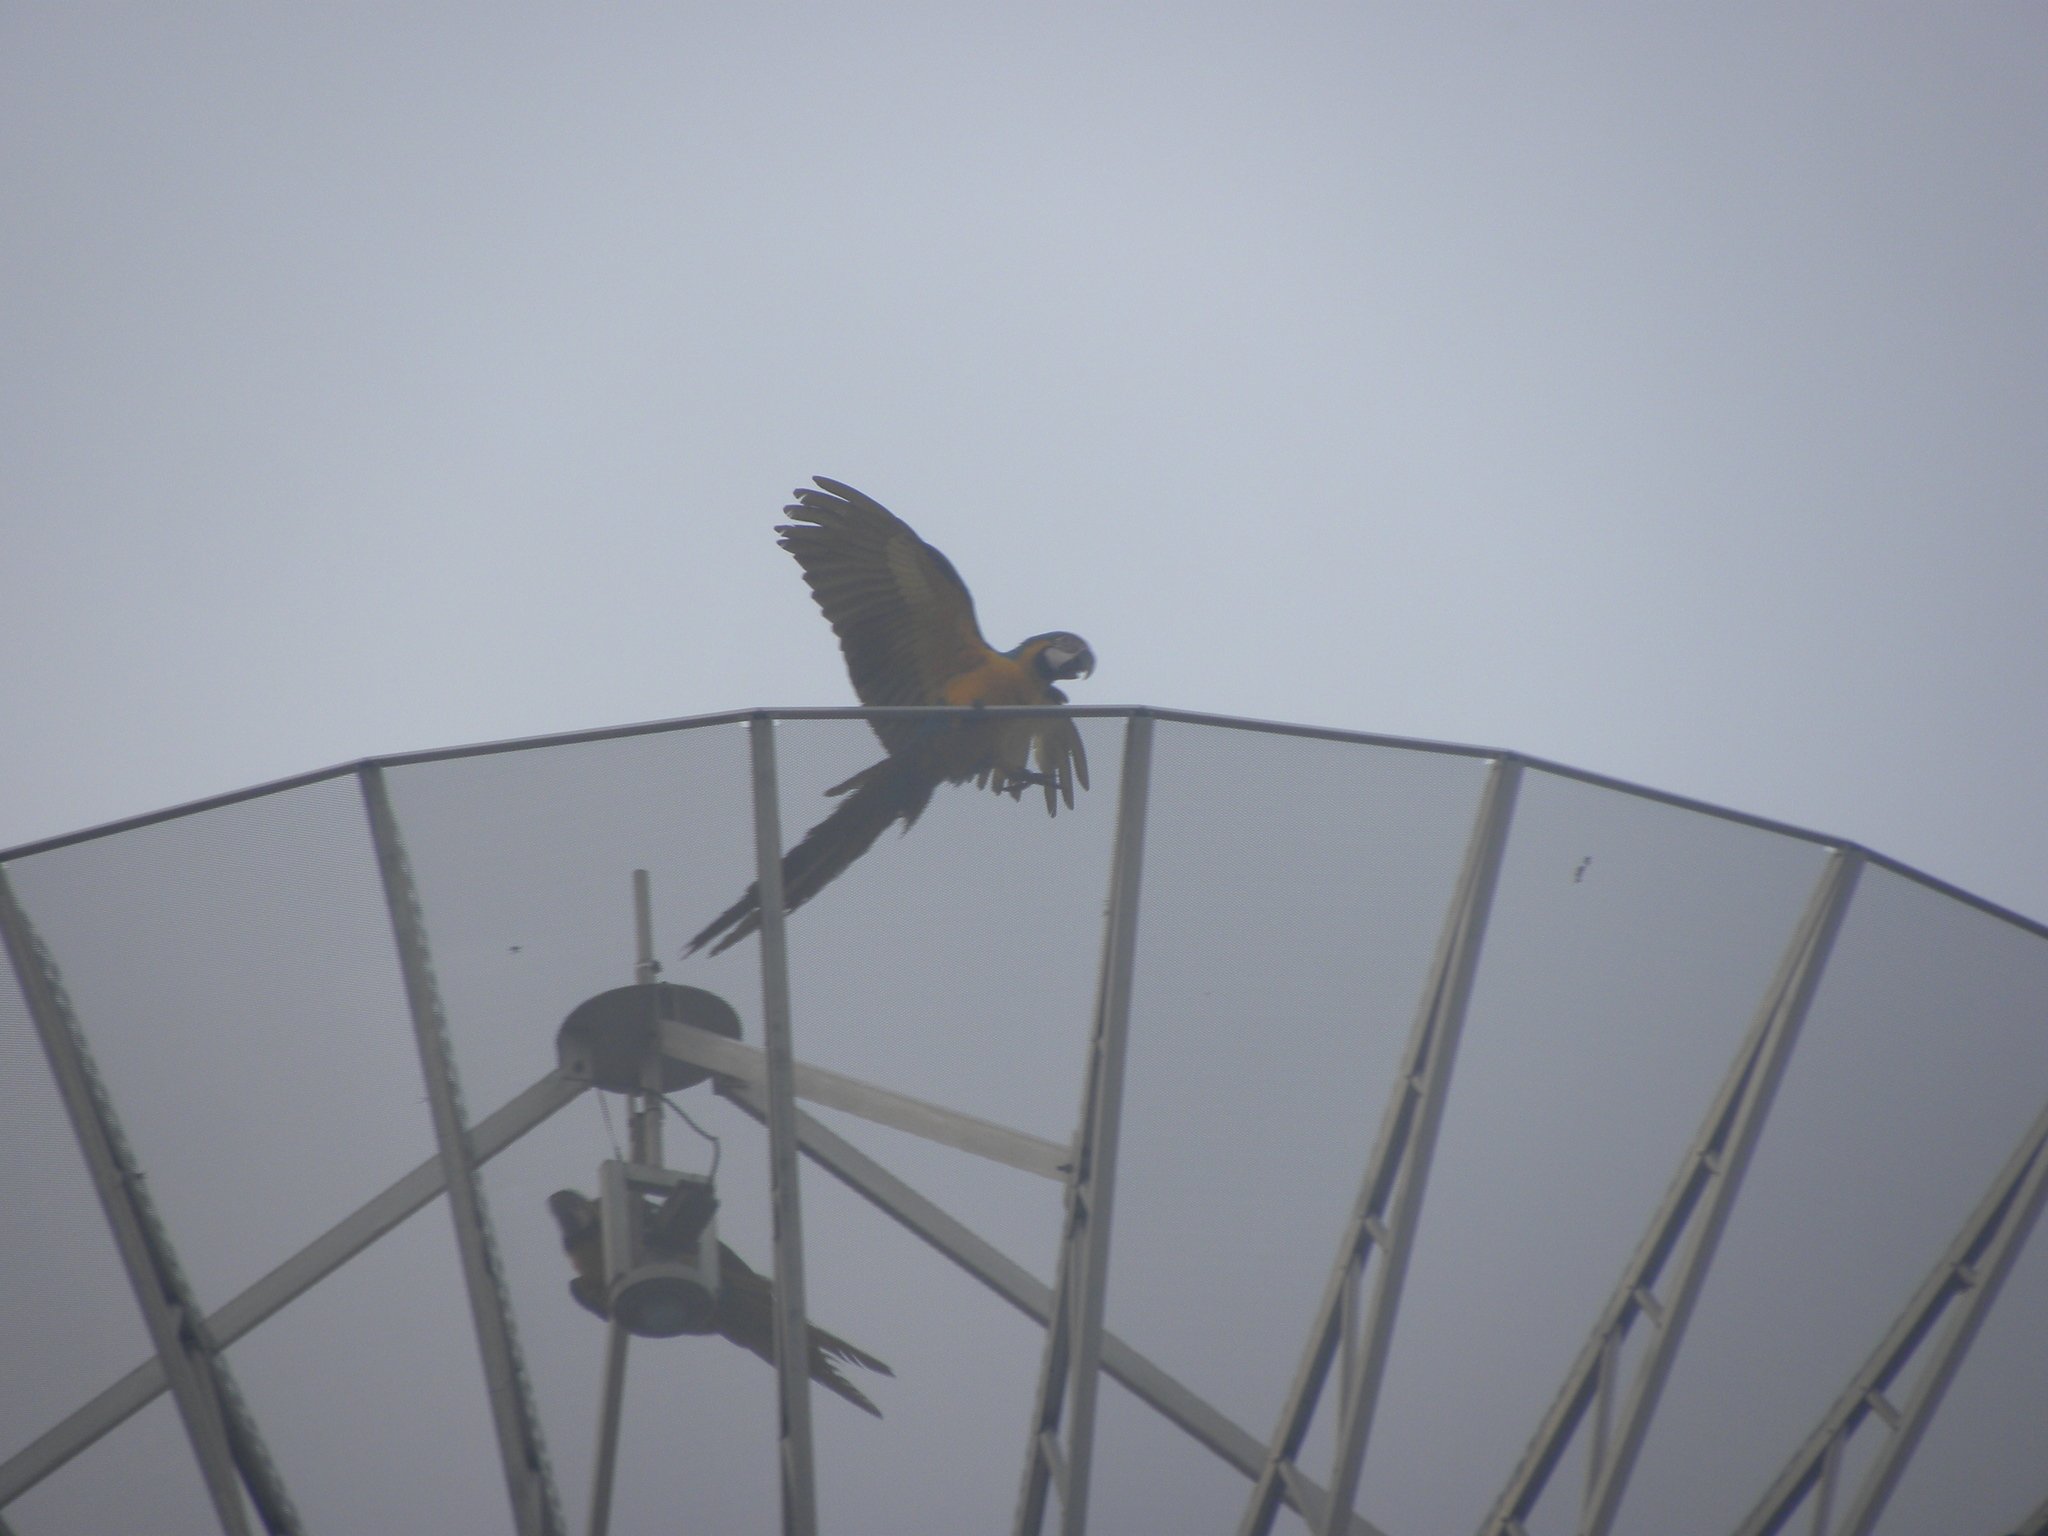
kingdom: Animalia
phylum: Chordata
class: Aves
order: Psittaciformes
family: Psittacidae
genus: Ara
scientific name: Ara ararauna
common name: Blue-and-yellow macaw
